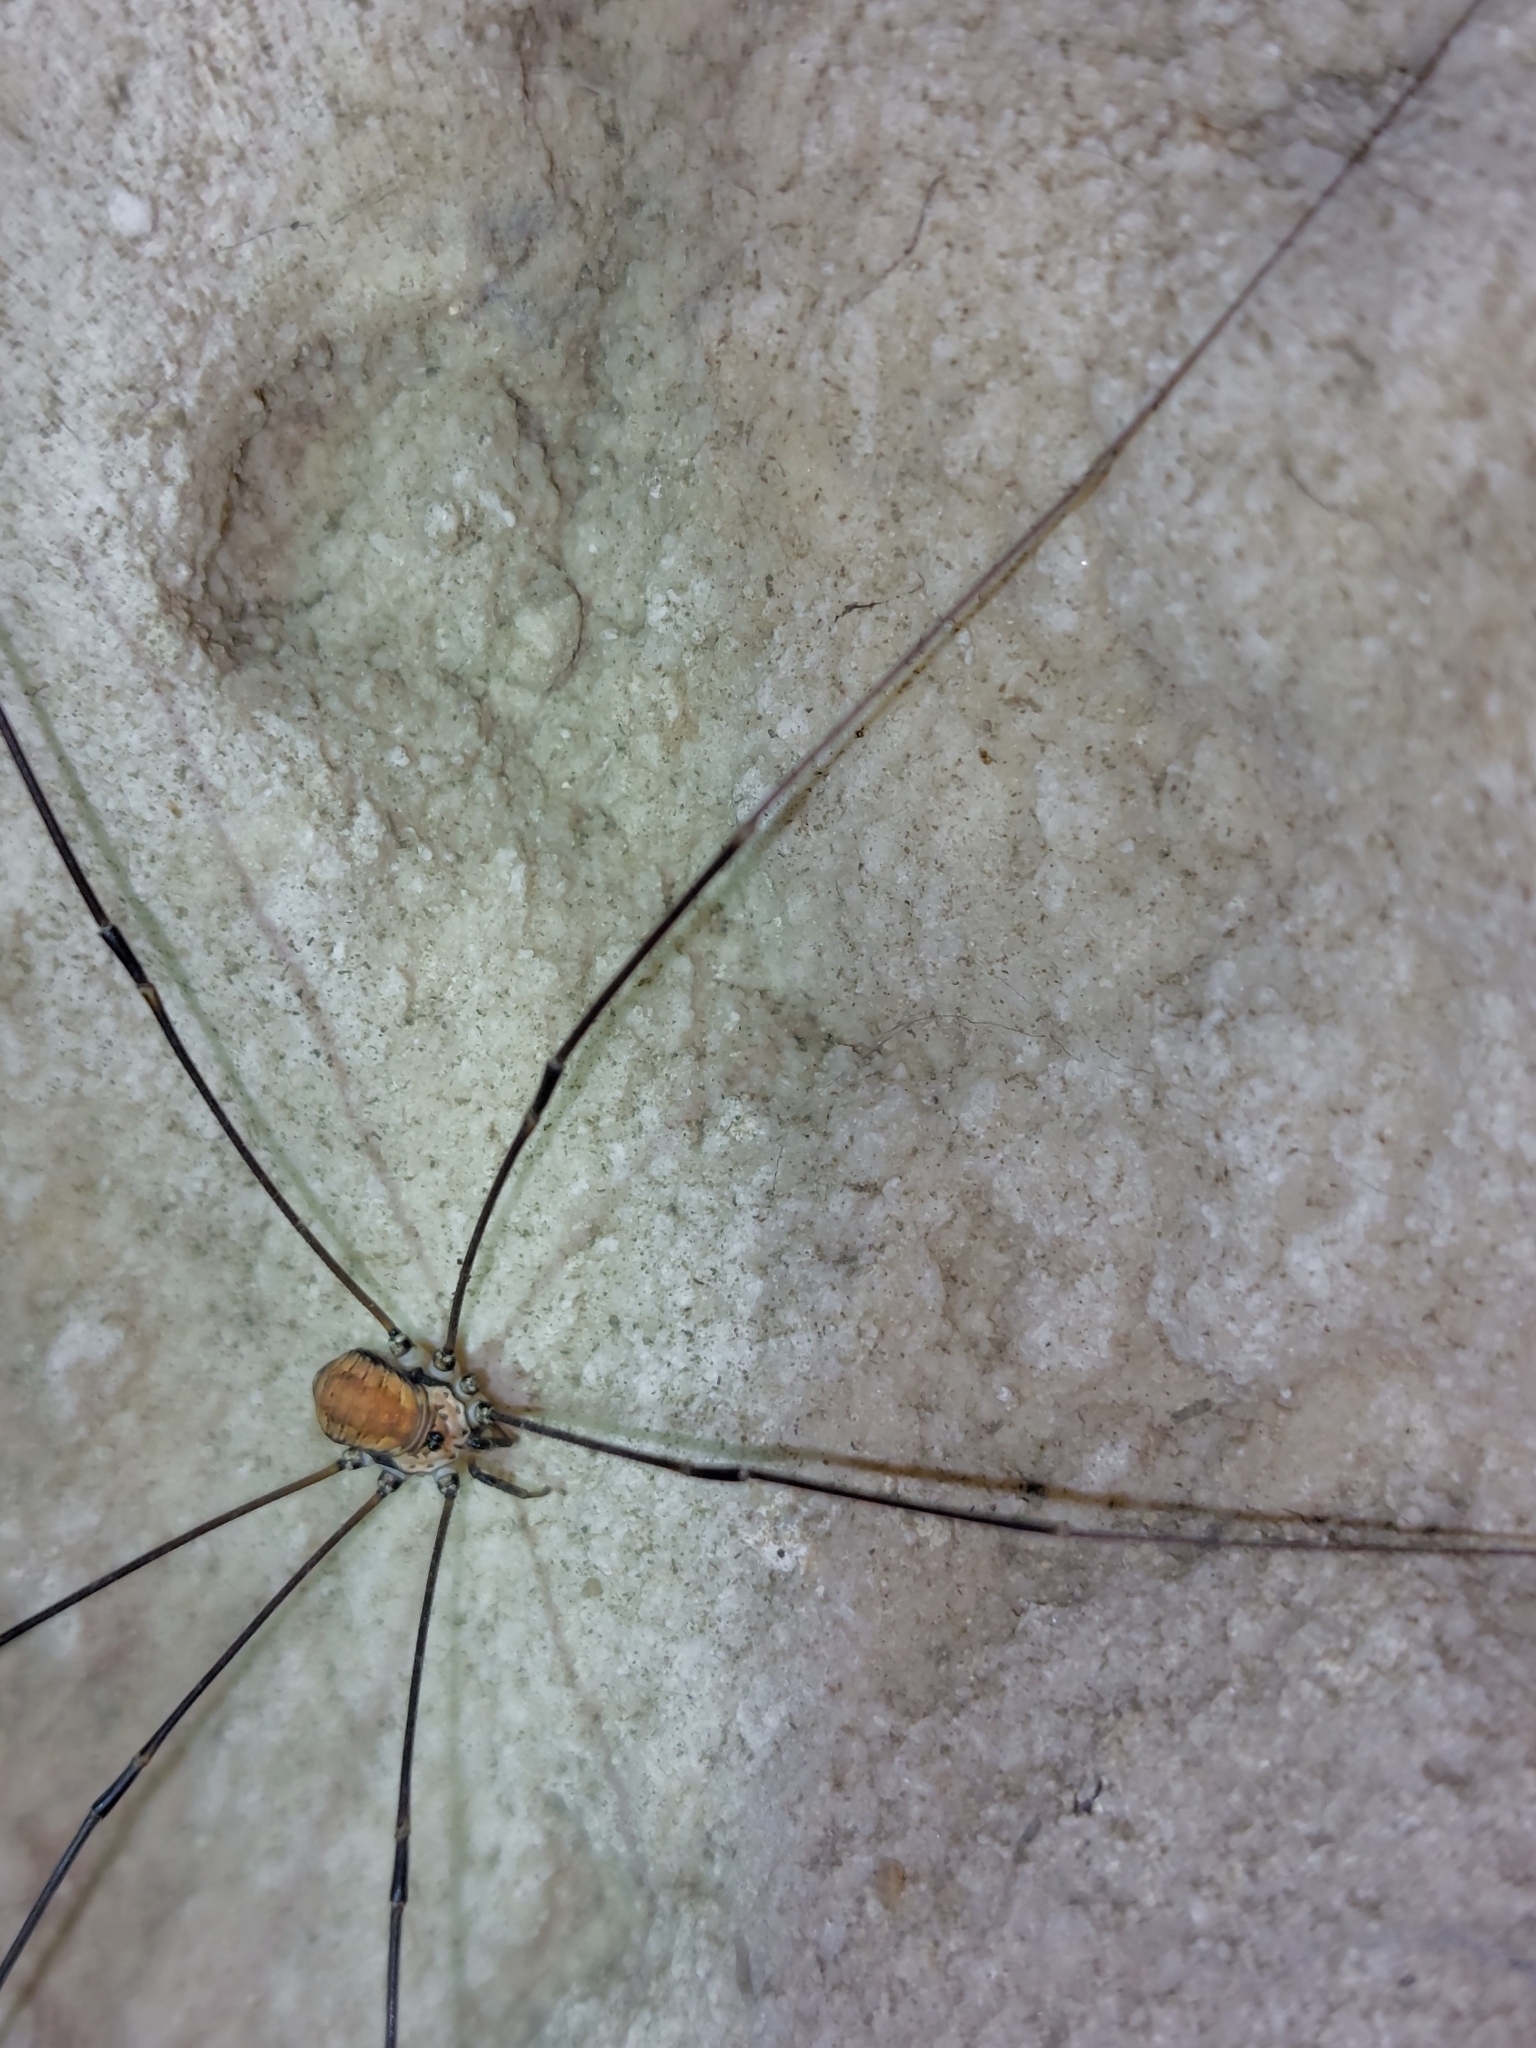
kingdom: Animalia
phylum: Arthropoda
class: Arachnida
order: Opiliones
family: Sclerosomatidae
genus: Leiobunum
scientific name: Leiobunum limbatum
